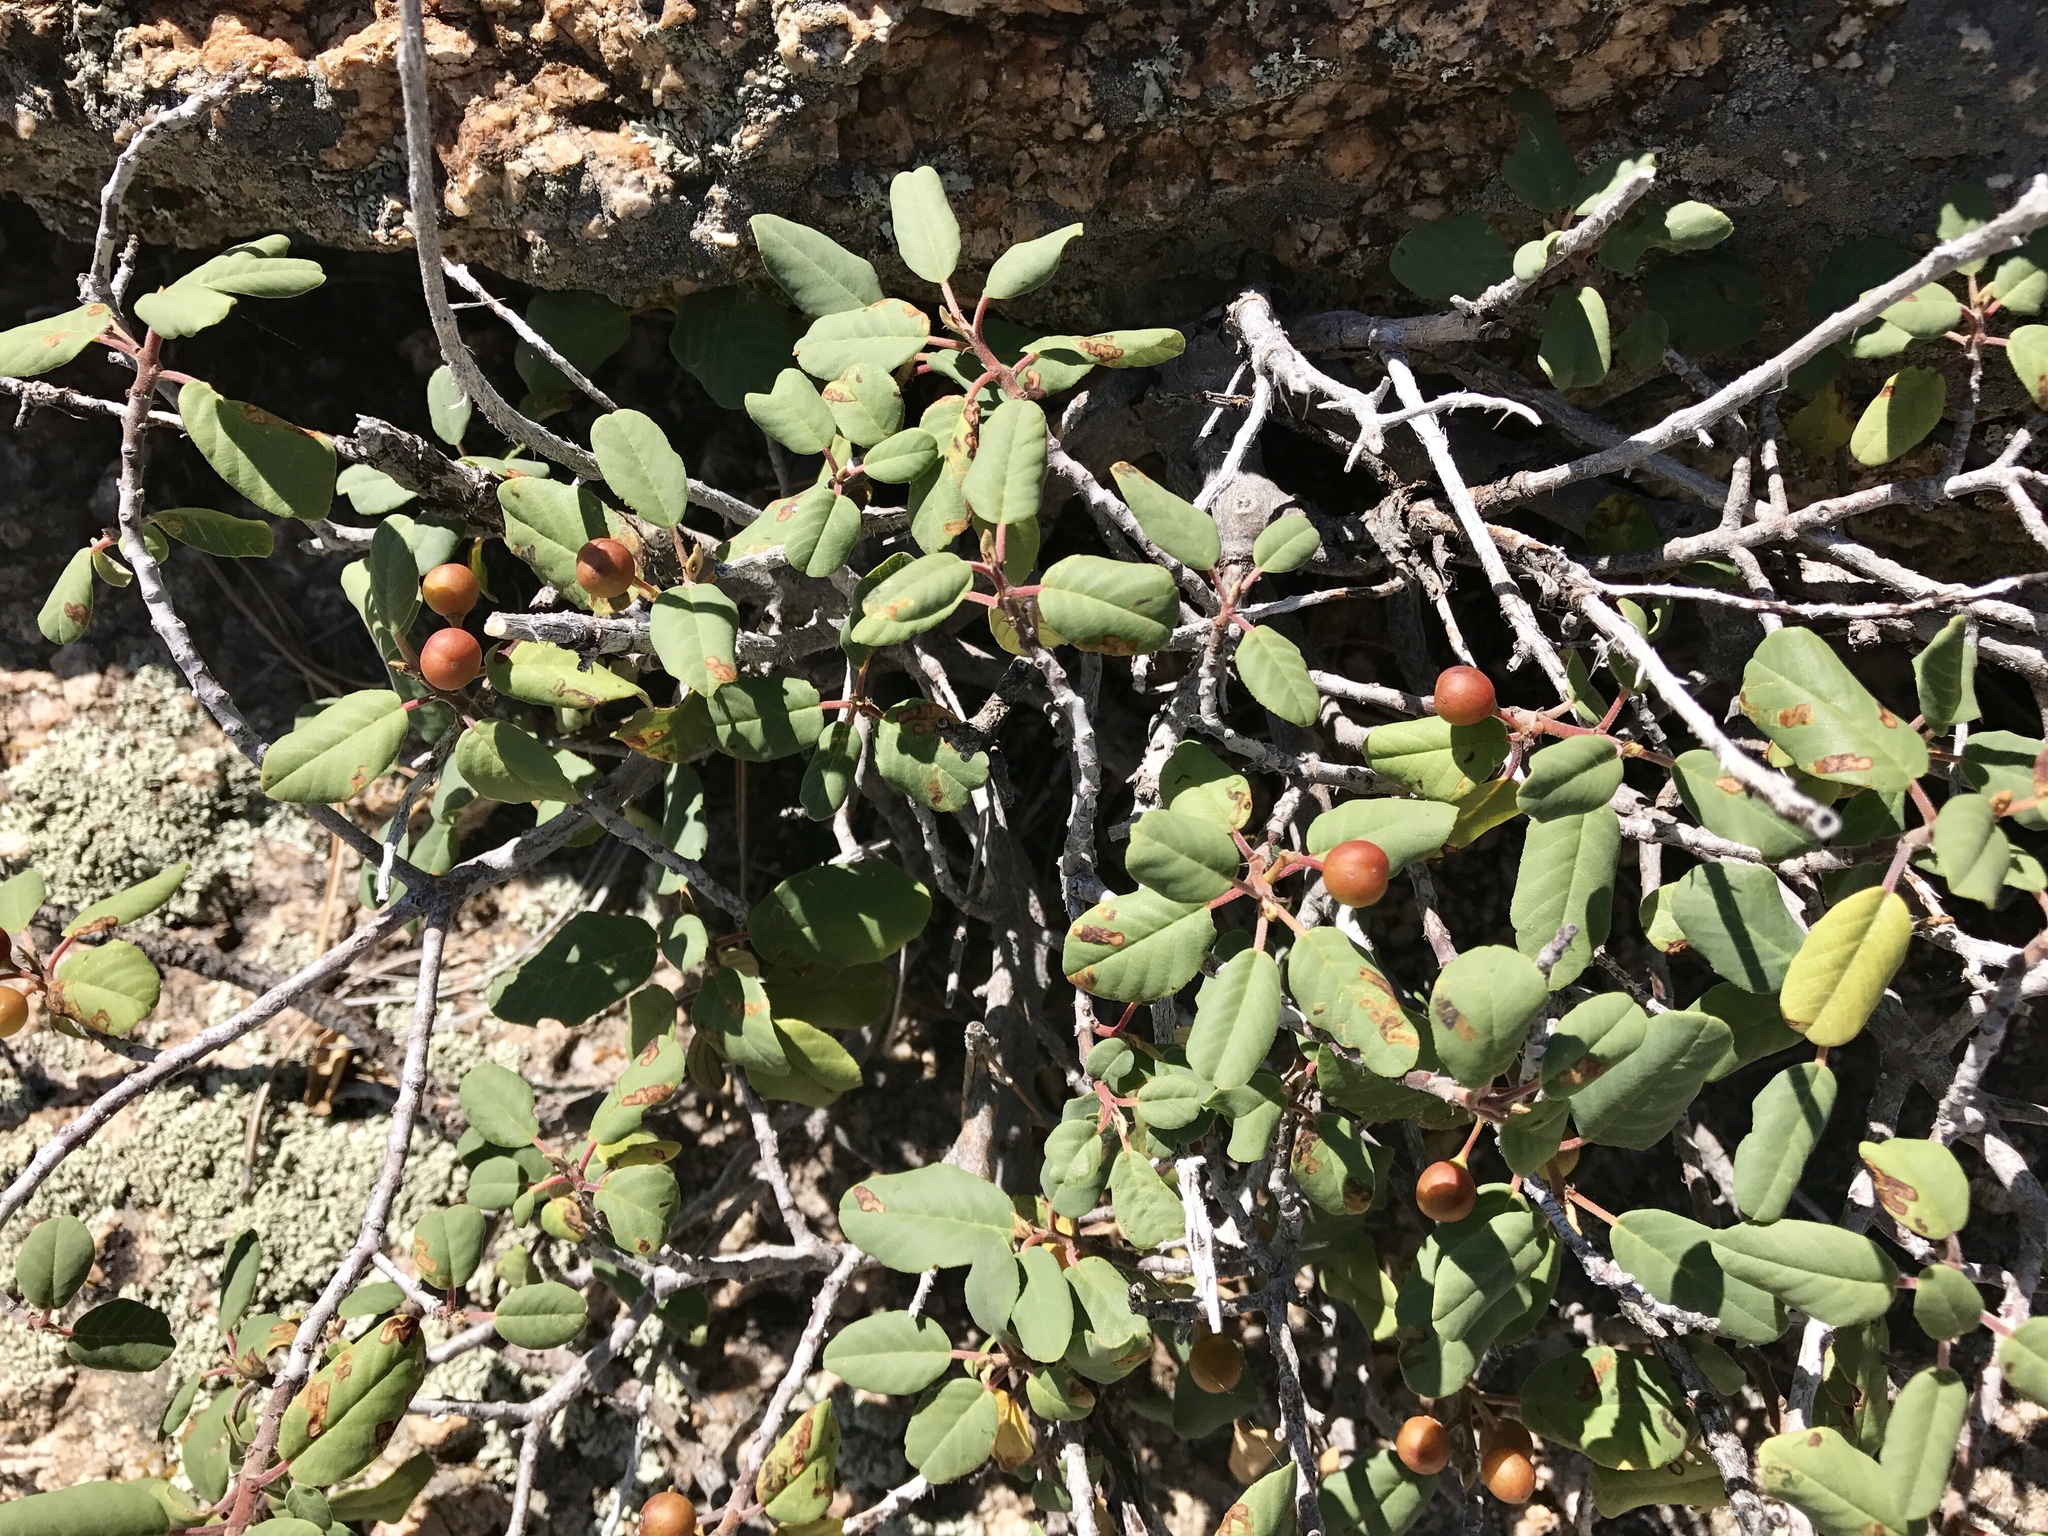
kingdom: Plantae
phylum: Tracheophyta
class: Magnoliopsida
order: Rosales
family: Rhamnaceae
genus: Frangula
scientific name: Frangula californica
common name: California buckthorn
